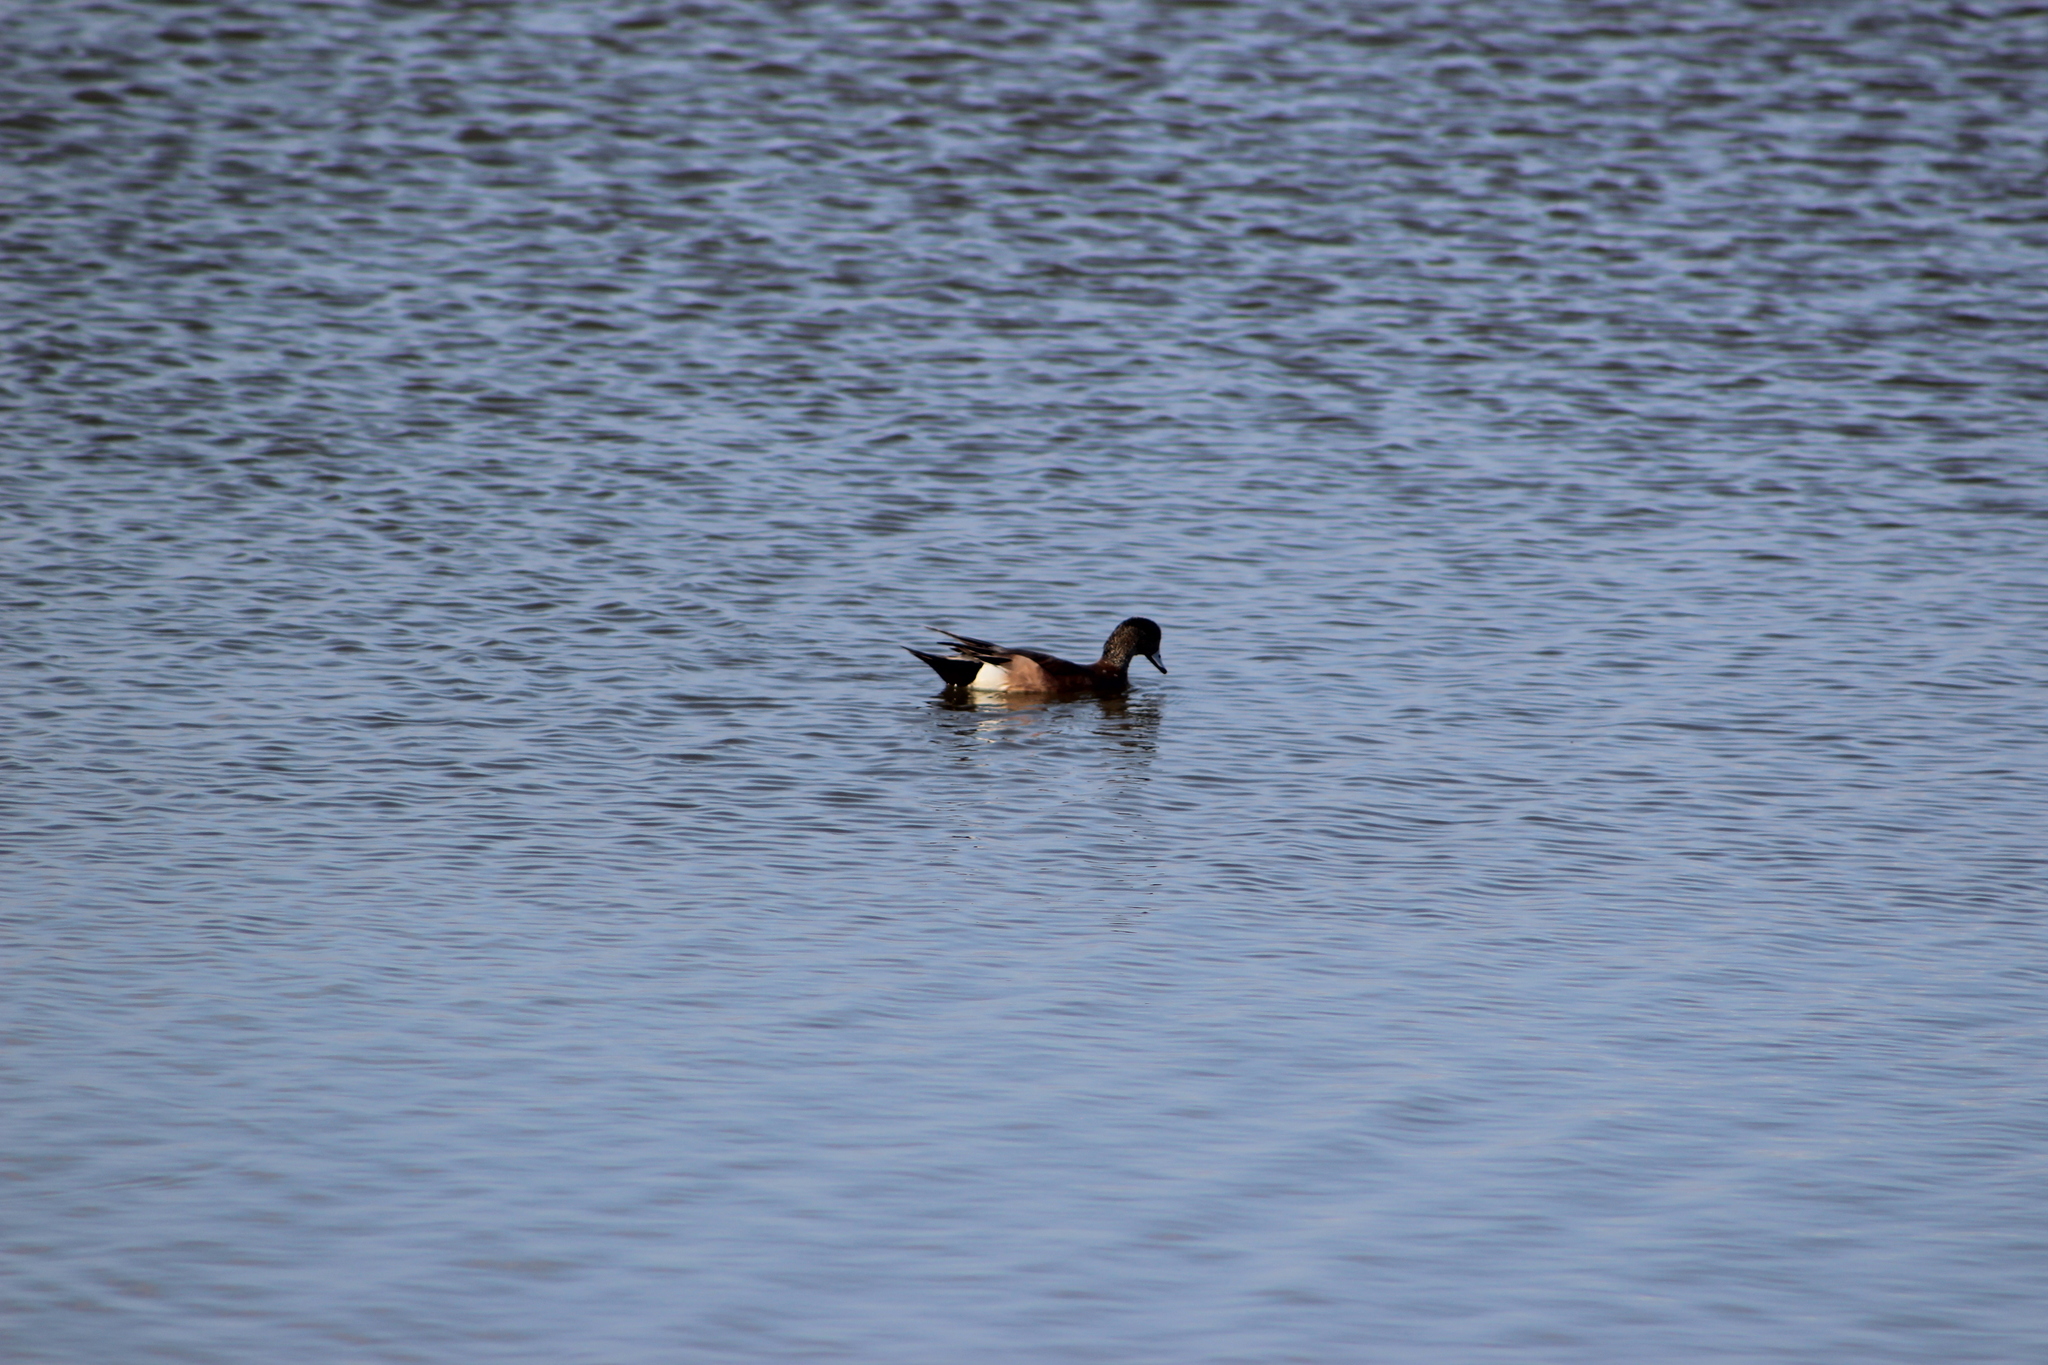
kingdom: Animalia
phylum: Chordata
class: Aves
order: Anseriformes
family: Anatidae
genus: Mareca
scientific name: Mareca americana
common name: American wigeon
